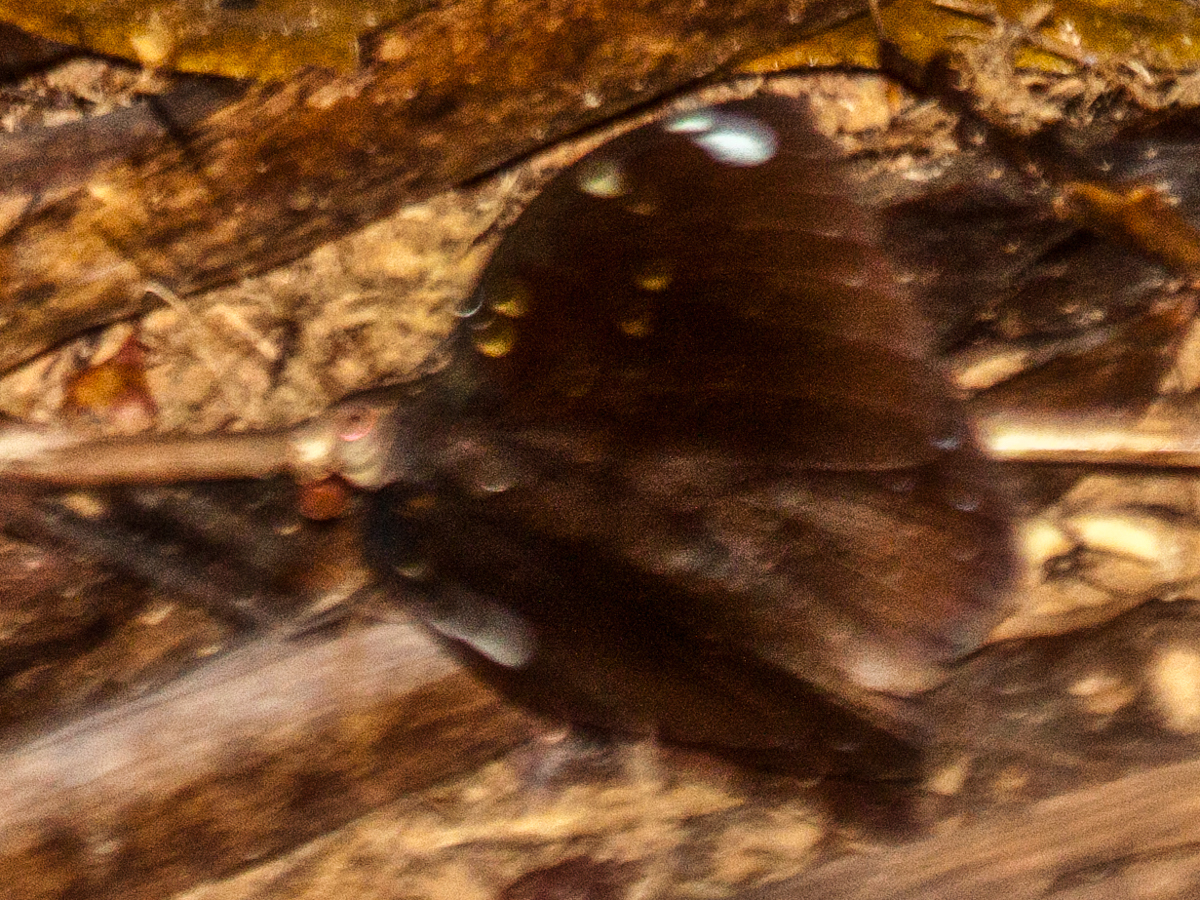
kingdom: Animalia
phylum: Arthropoda
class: Insecta
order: Lepidoptera
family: Nymphalidae
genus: Lexias
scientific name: Lexias
